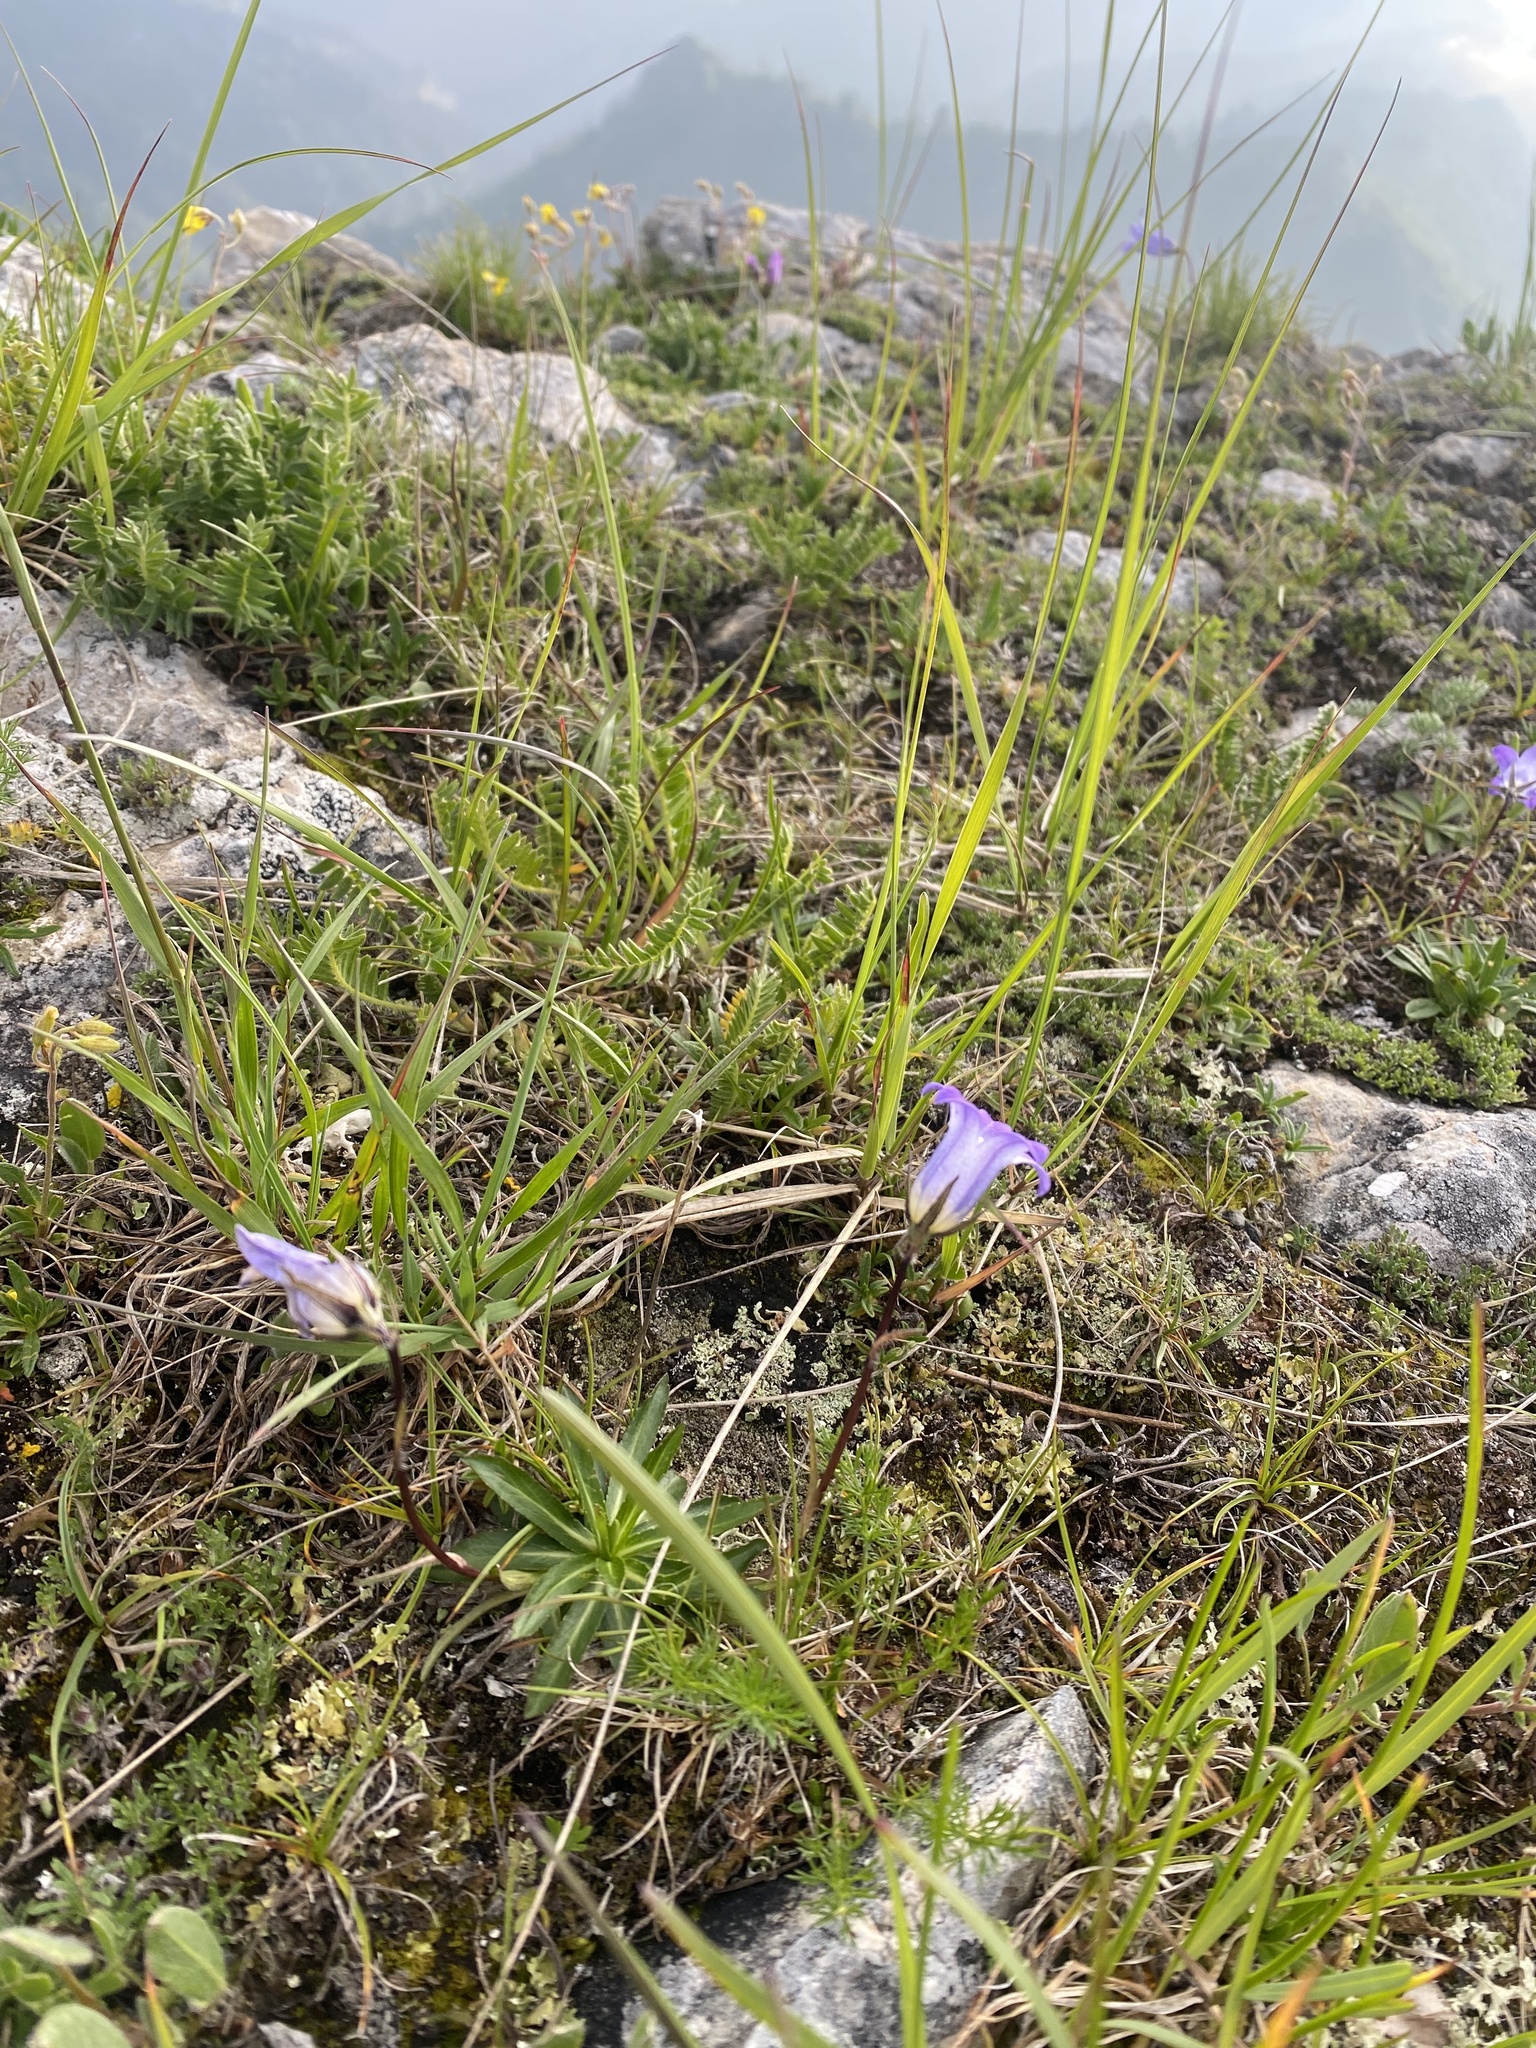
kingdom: Plantae
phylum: Tracheophyta
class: Magnoliopsida
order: Asterales
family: Campanulaceae
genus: Campanula
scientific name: Campanula ciliata
